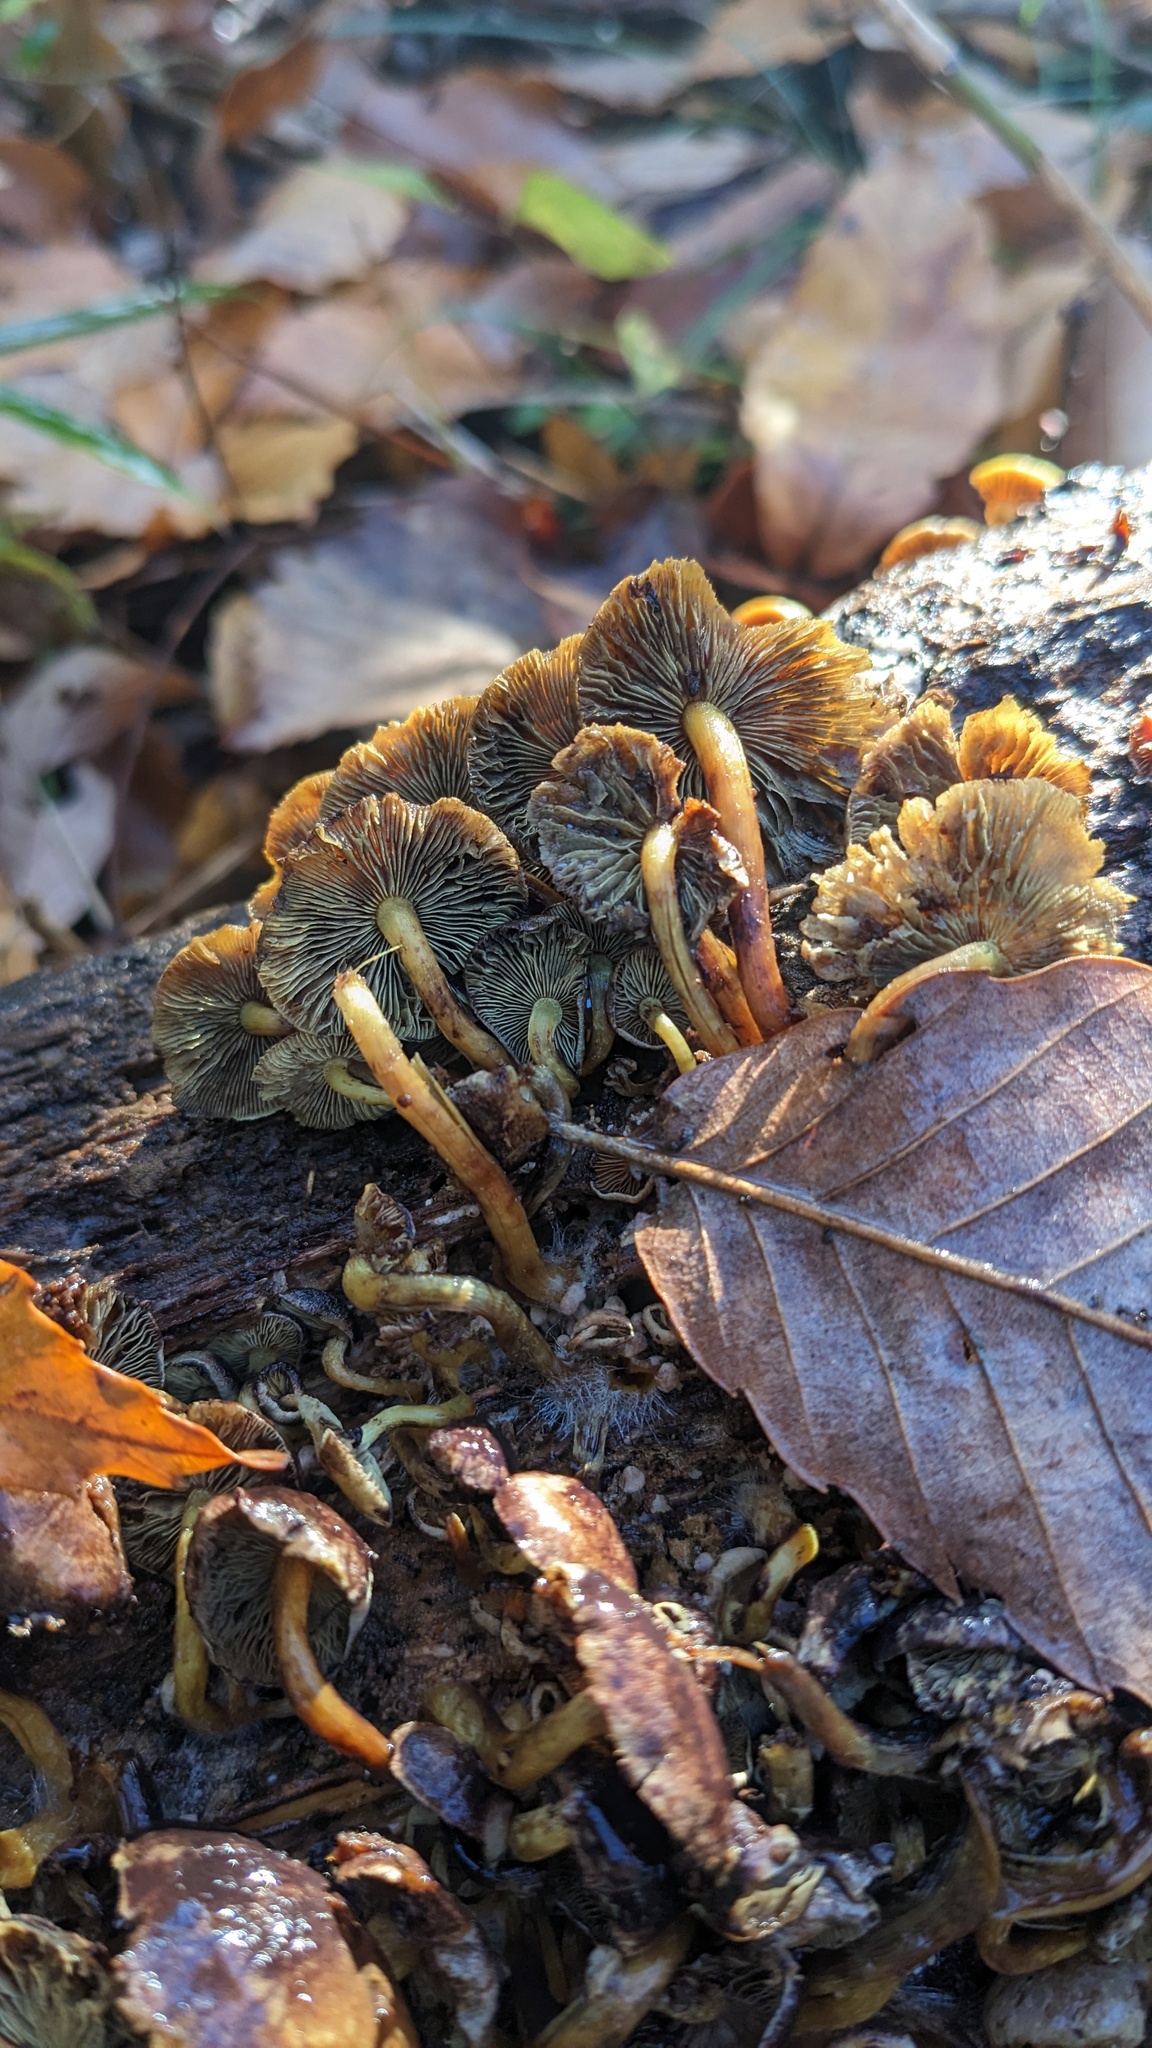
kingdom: Fungi
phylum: Basidiomycota
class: Agaricomycetes
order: Agaricales
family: Strophariaceae
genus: Hypholoma
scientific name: Hypholoma fasciculare
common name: Sulphur tuft
